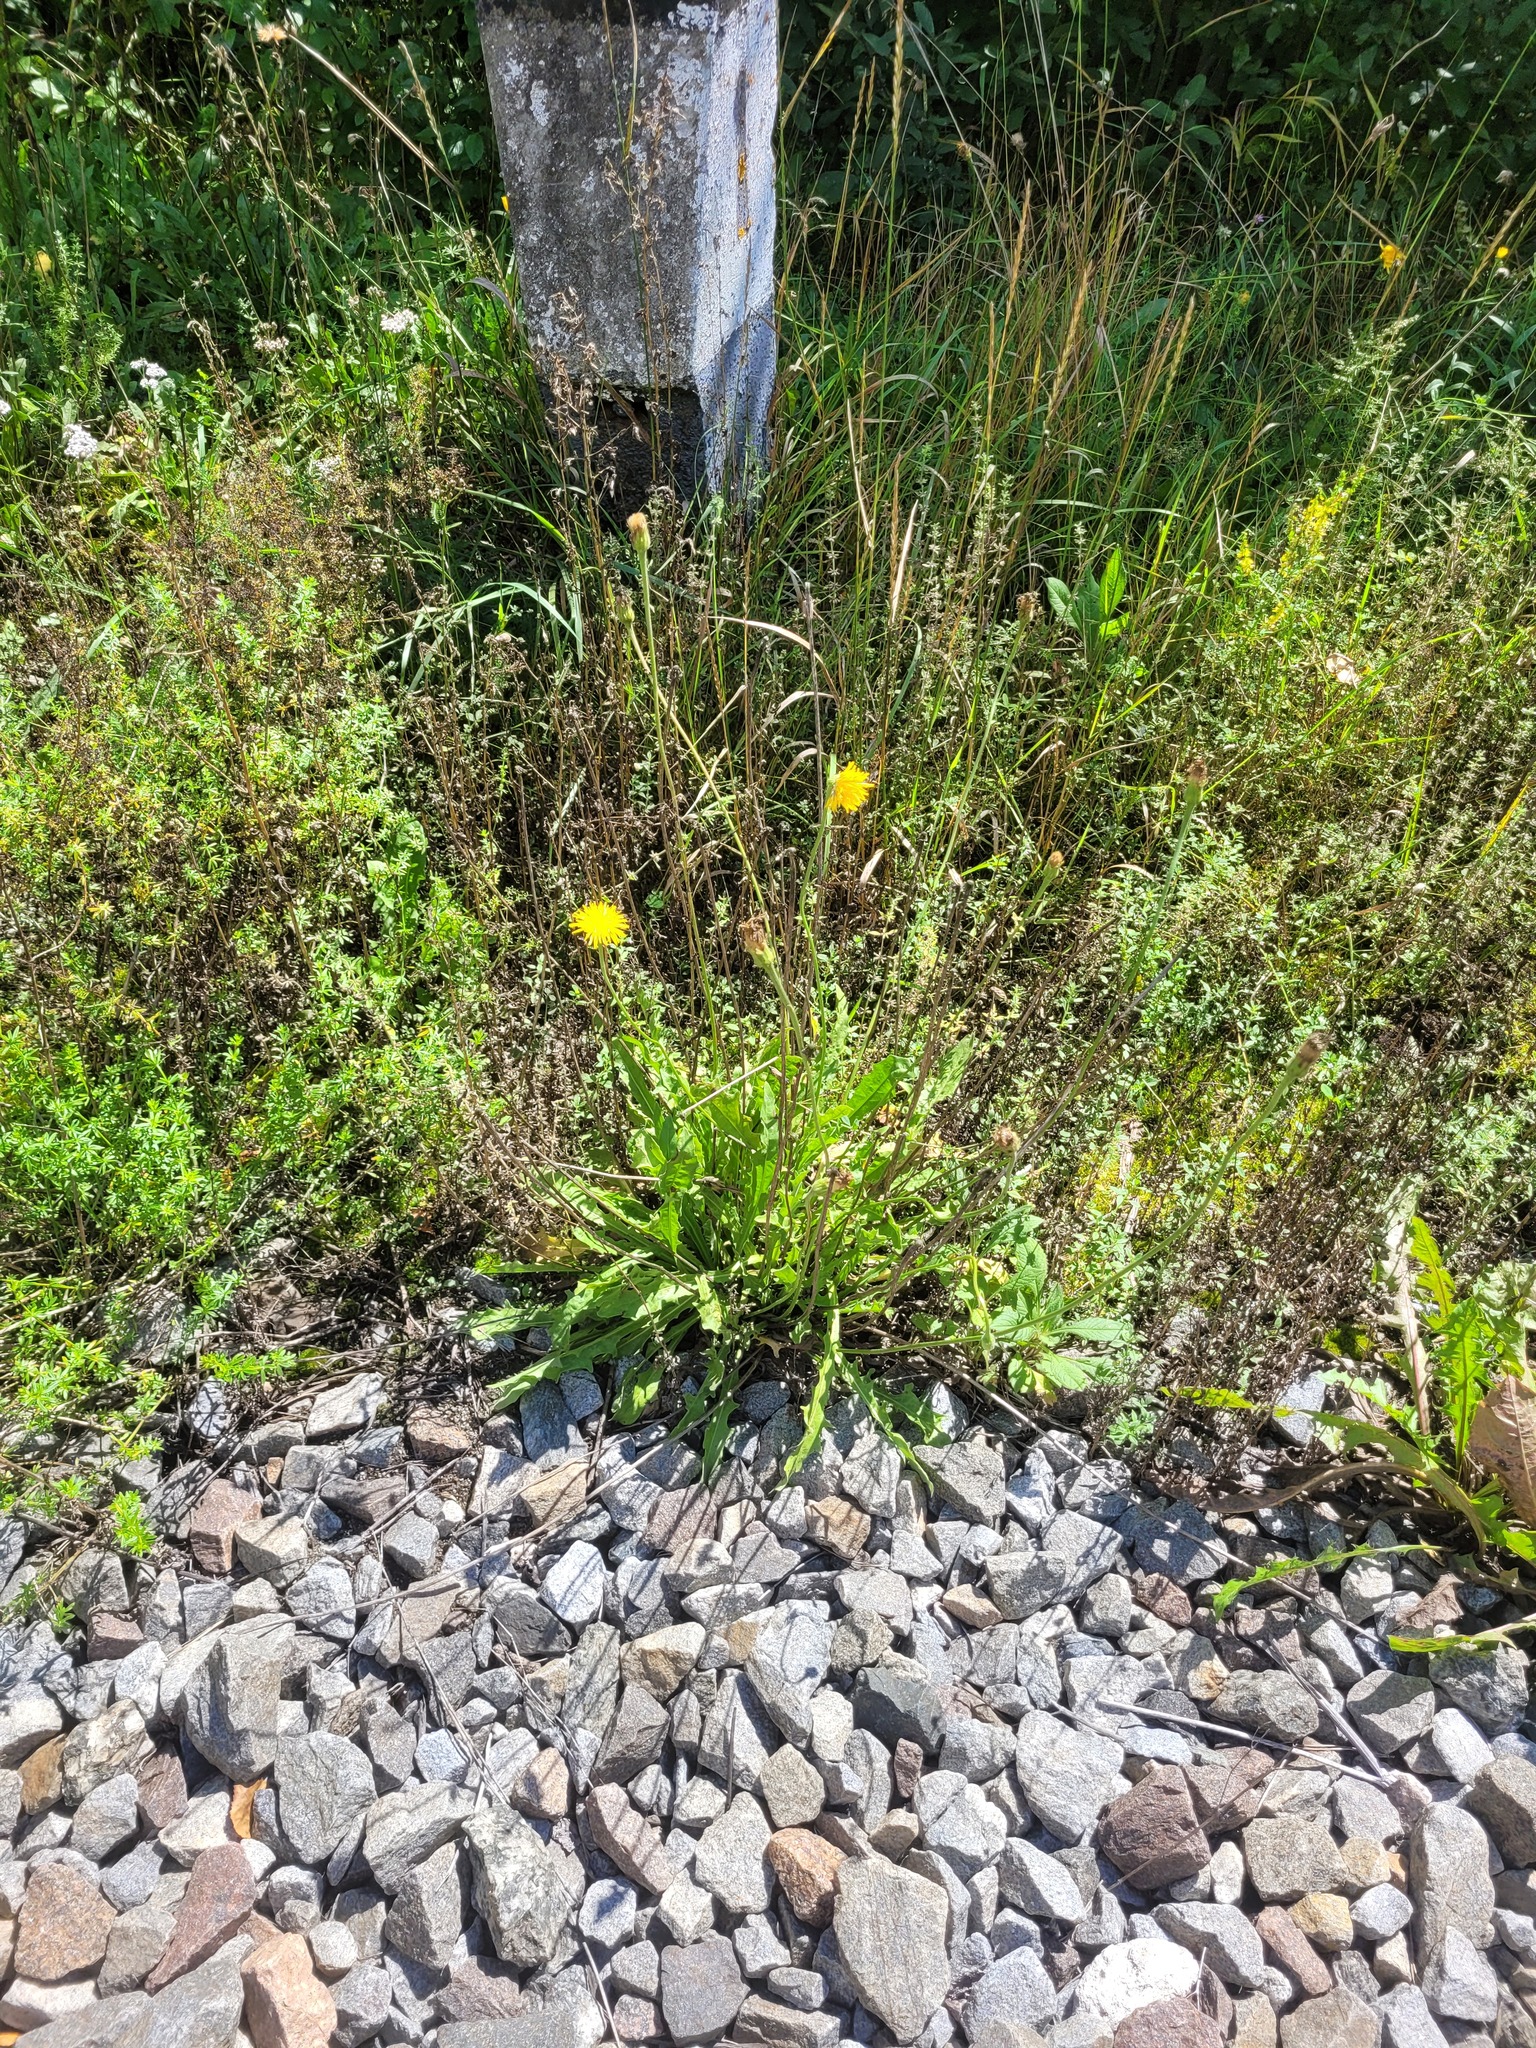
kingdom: Plantae
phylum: Tracheophyta
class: Magnoliopsida
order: Asterales
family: Asteraceae
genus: Leontodon
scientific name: Leontodon hispidus
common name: Rough hawkbit
